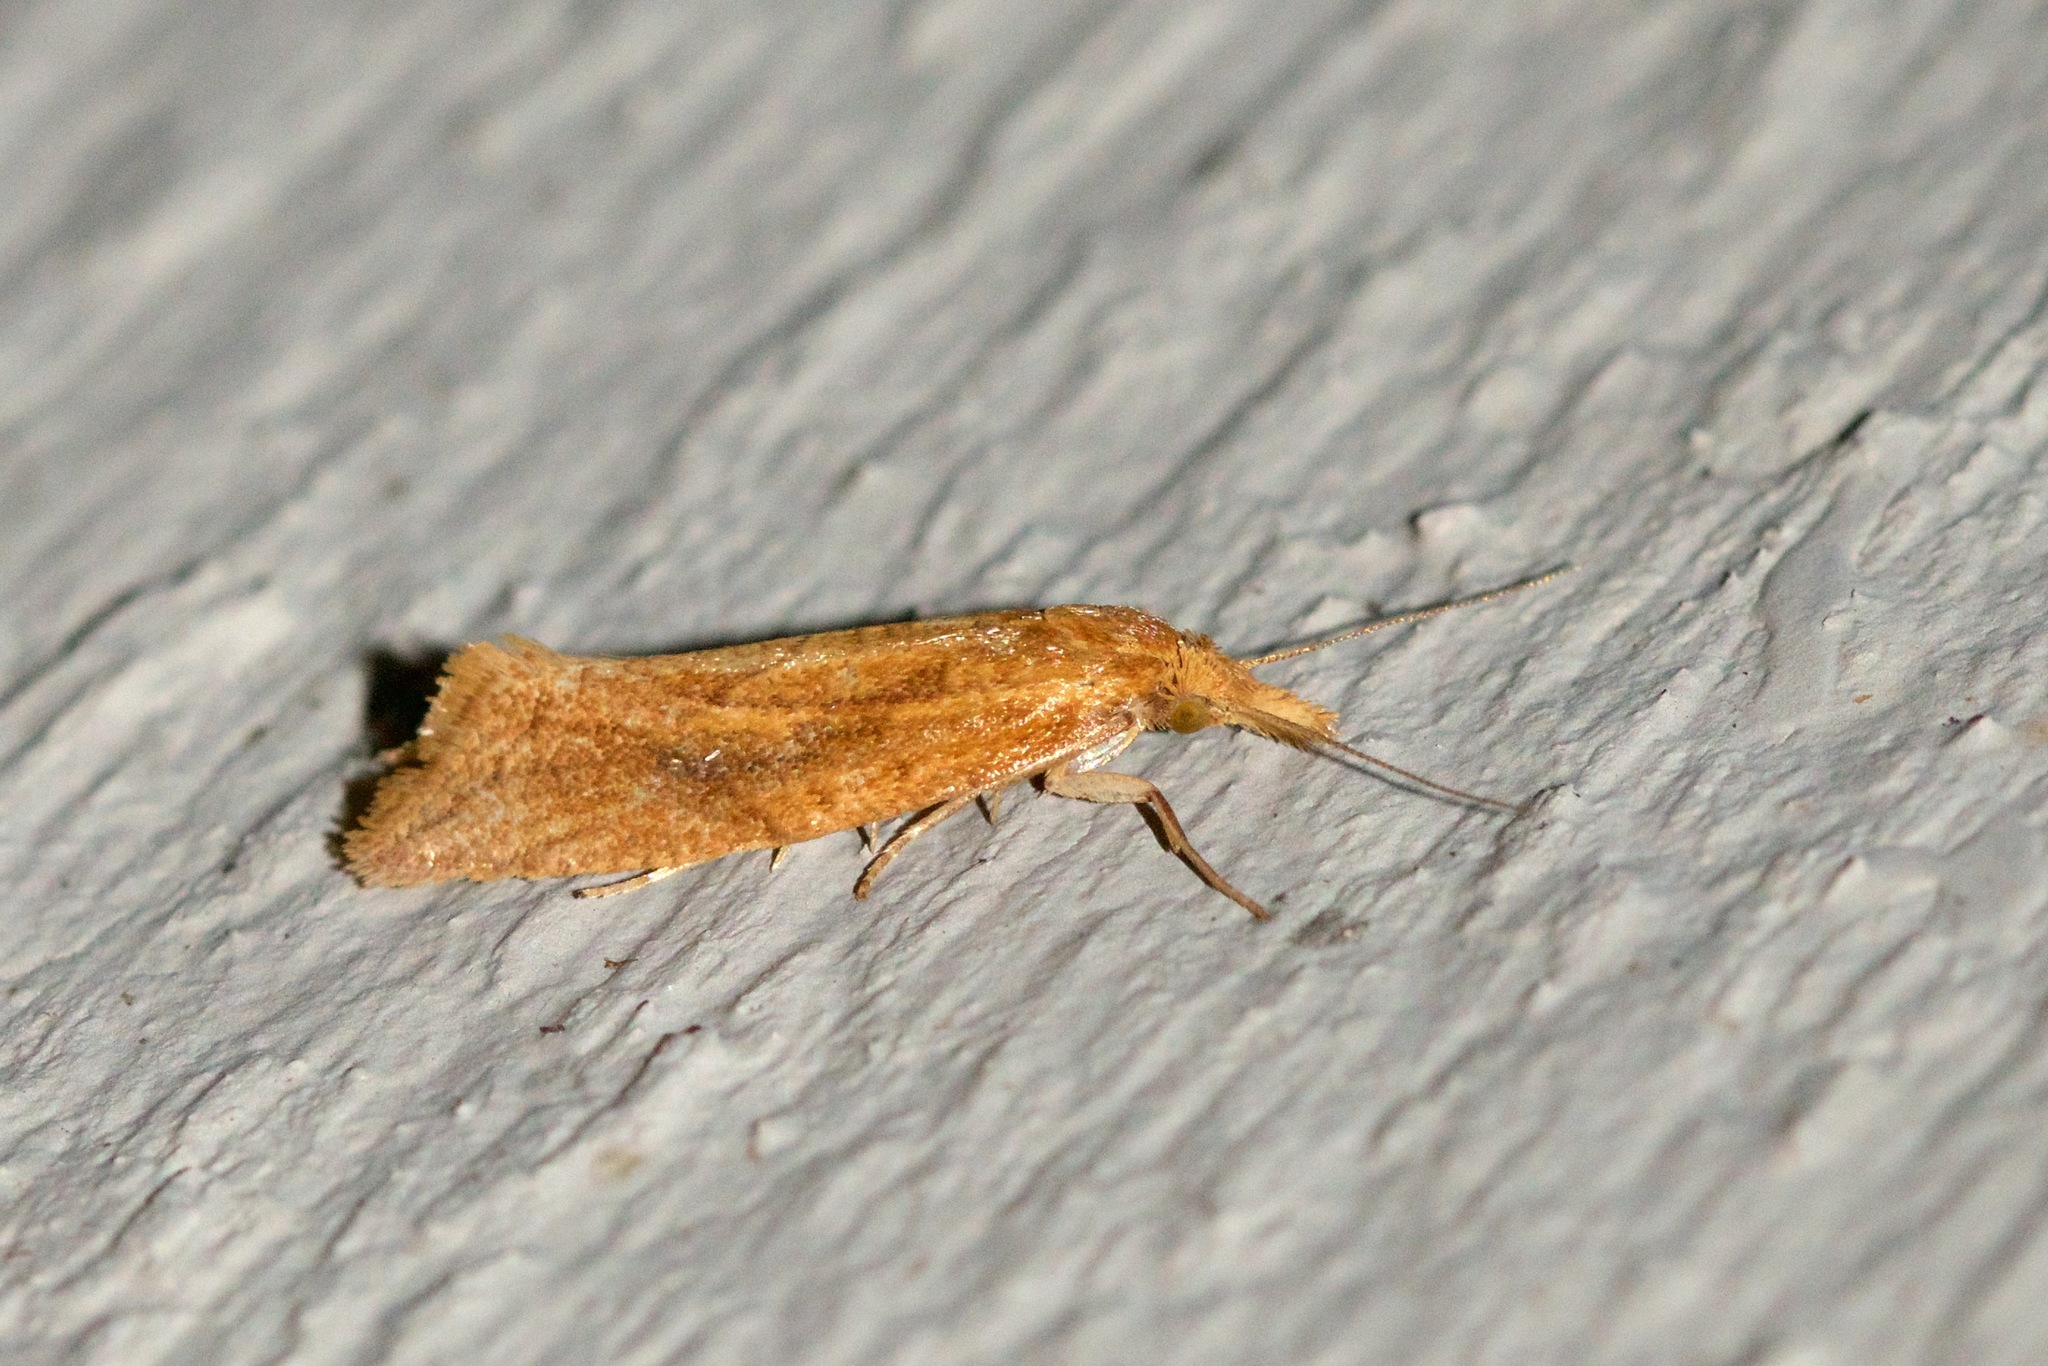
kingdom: Animalia
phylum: Arthropoda
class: Insecta
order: Lepidoptera
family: Tortricidae
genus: Aethes
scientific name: Aethes biscana
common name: Reddish aethes
